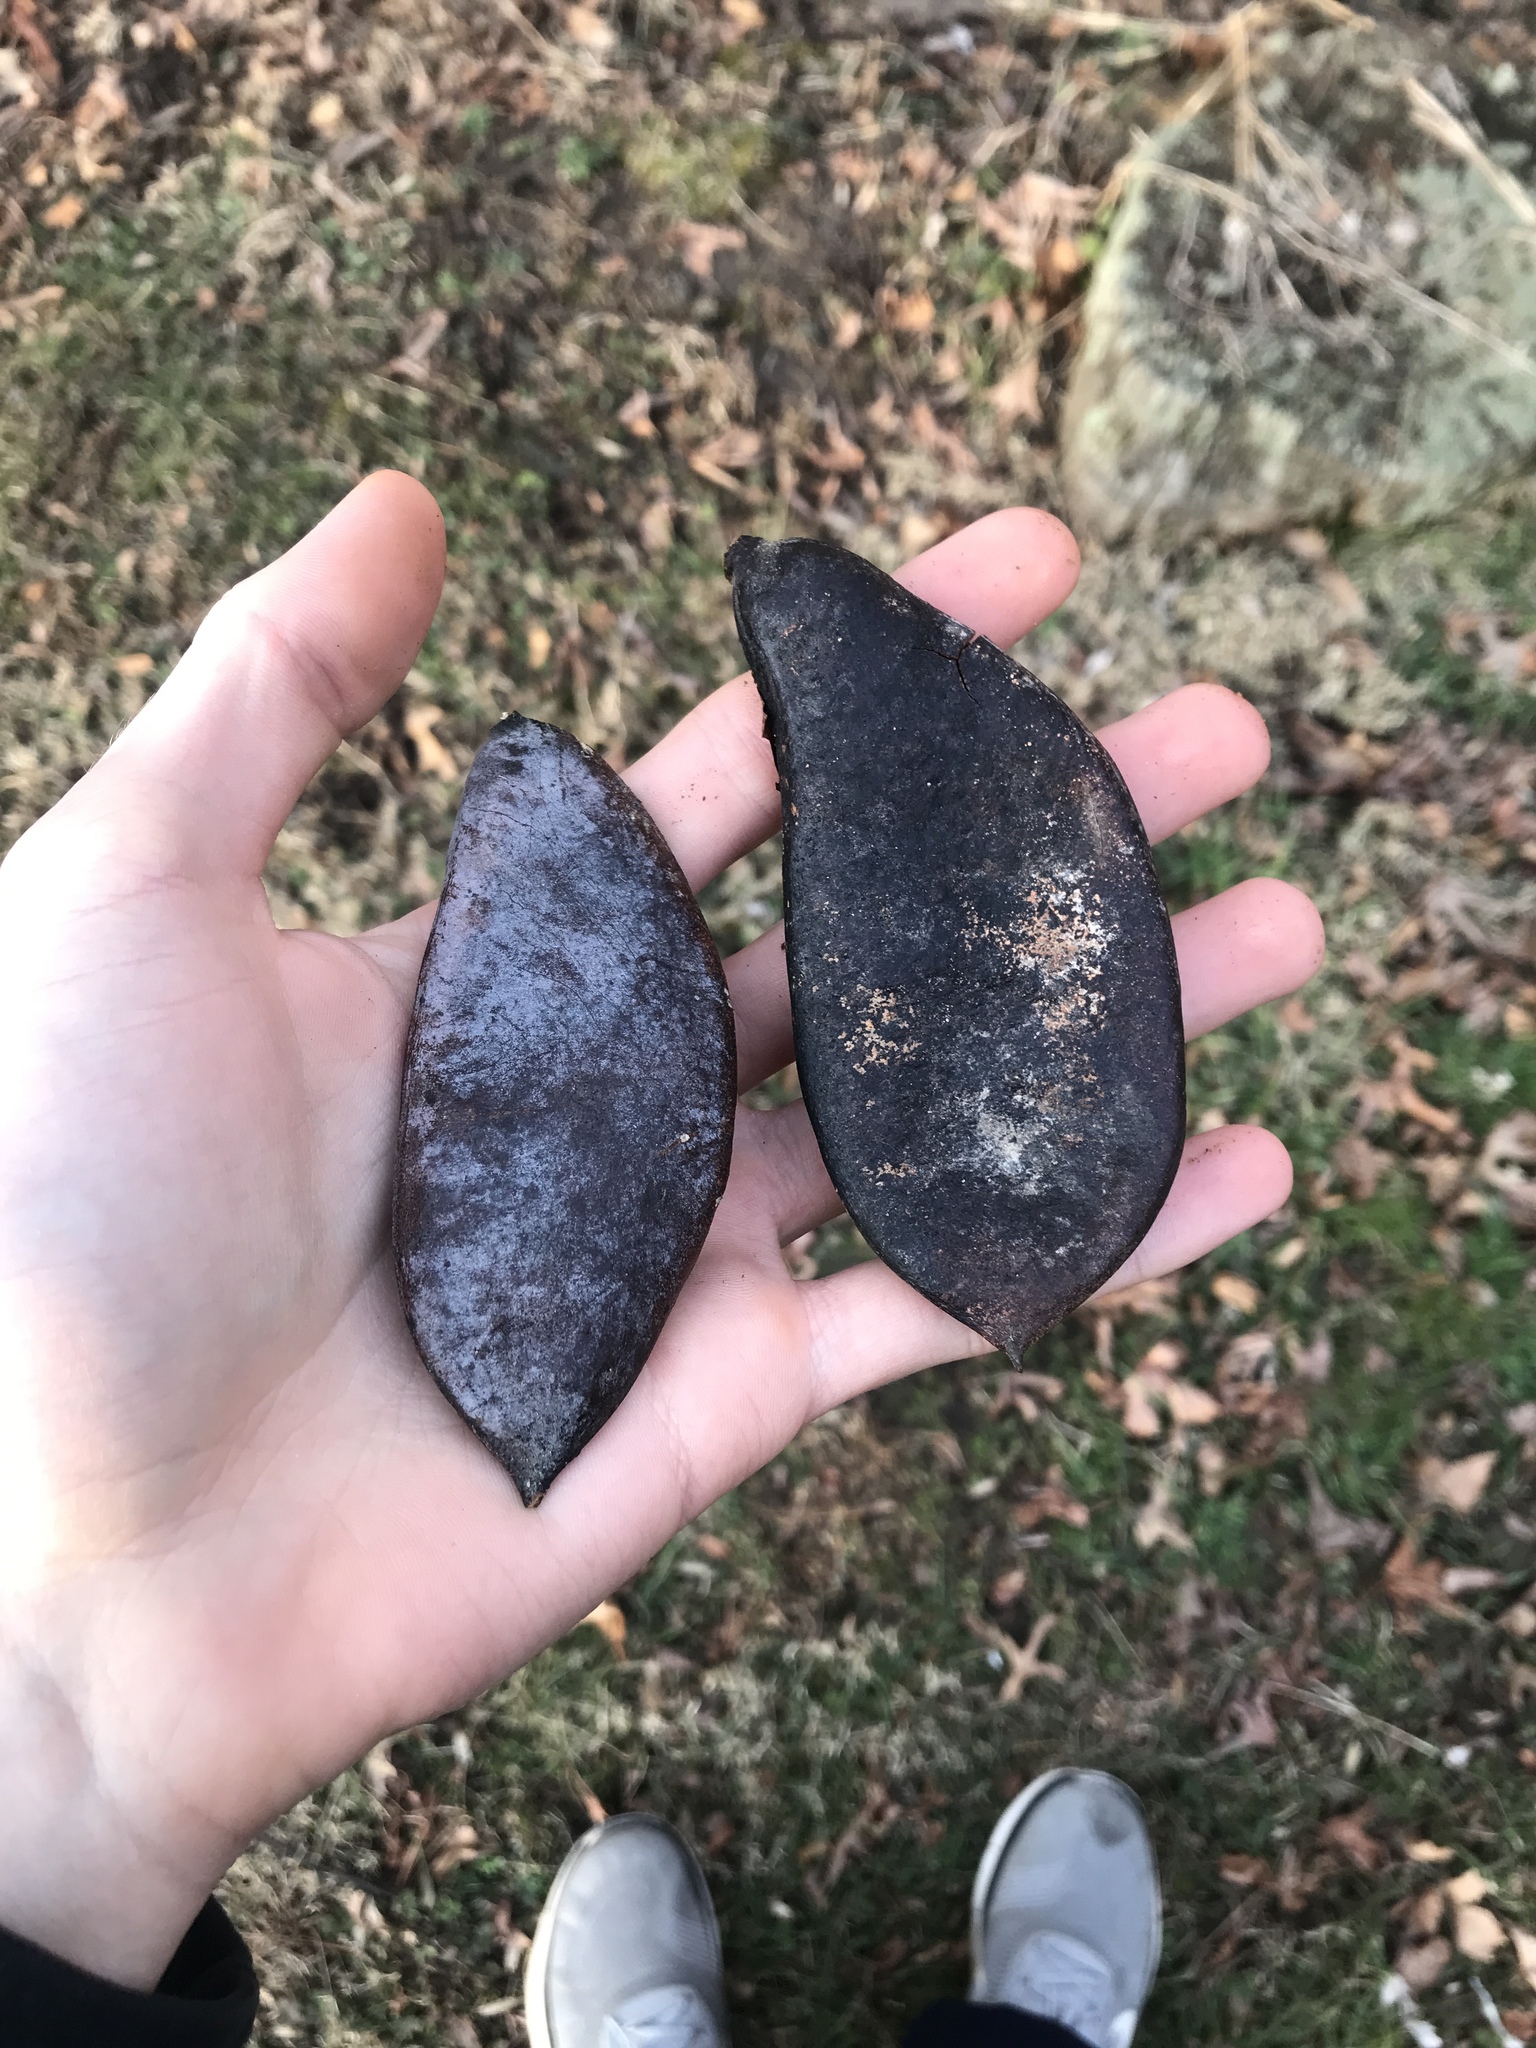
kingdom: Plantae
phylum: Tracheophyta
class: Magnoliopsida
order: Fabales
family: Fabaceae
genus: Gymnocladus
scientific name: Gymnocladus dioicus
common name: Kentucky coffee-tree
